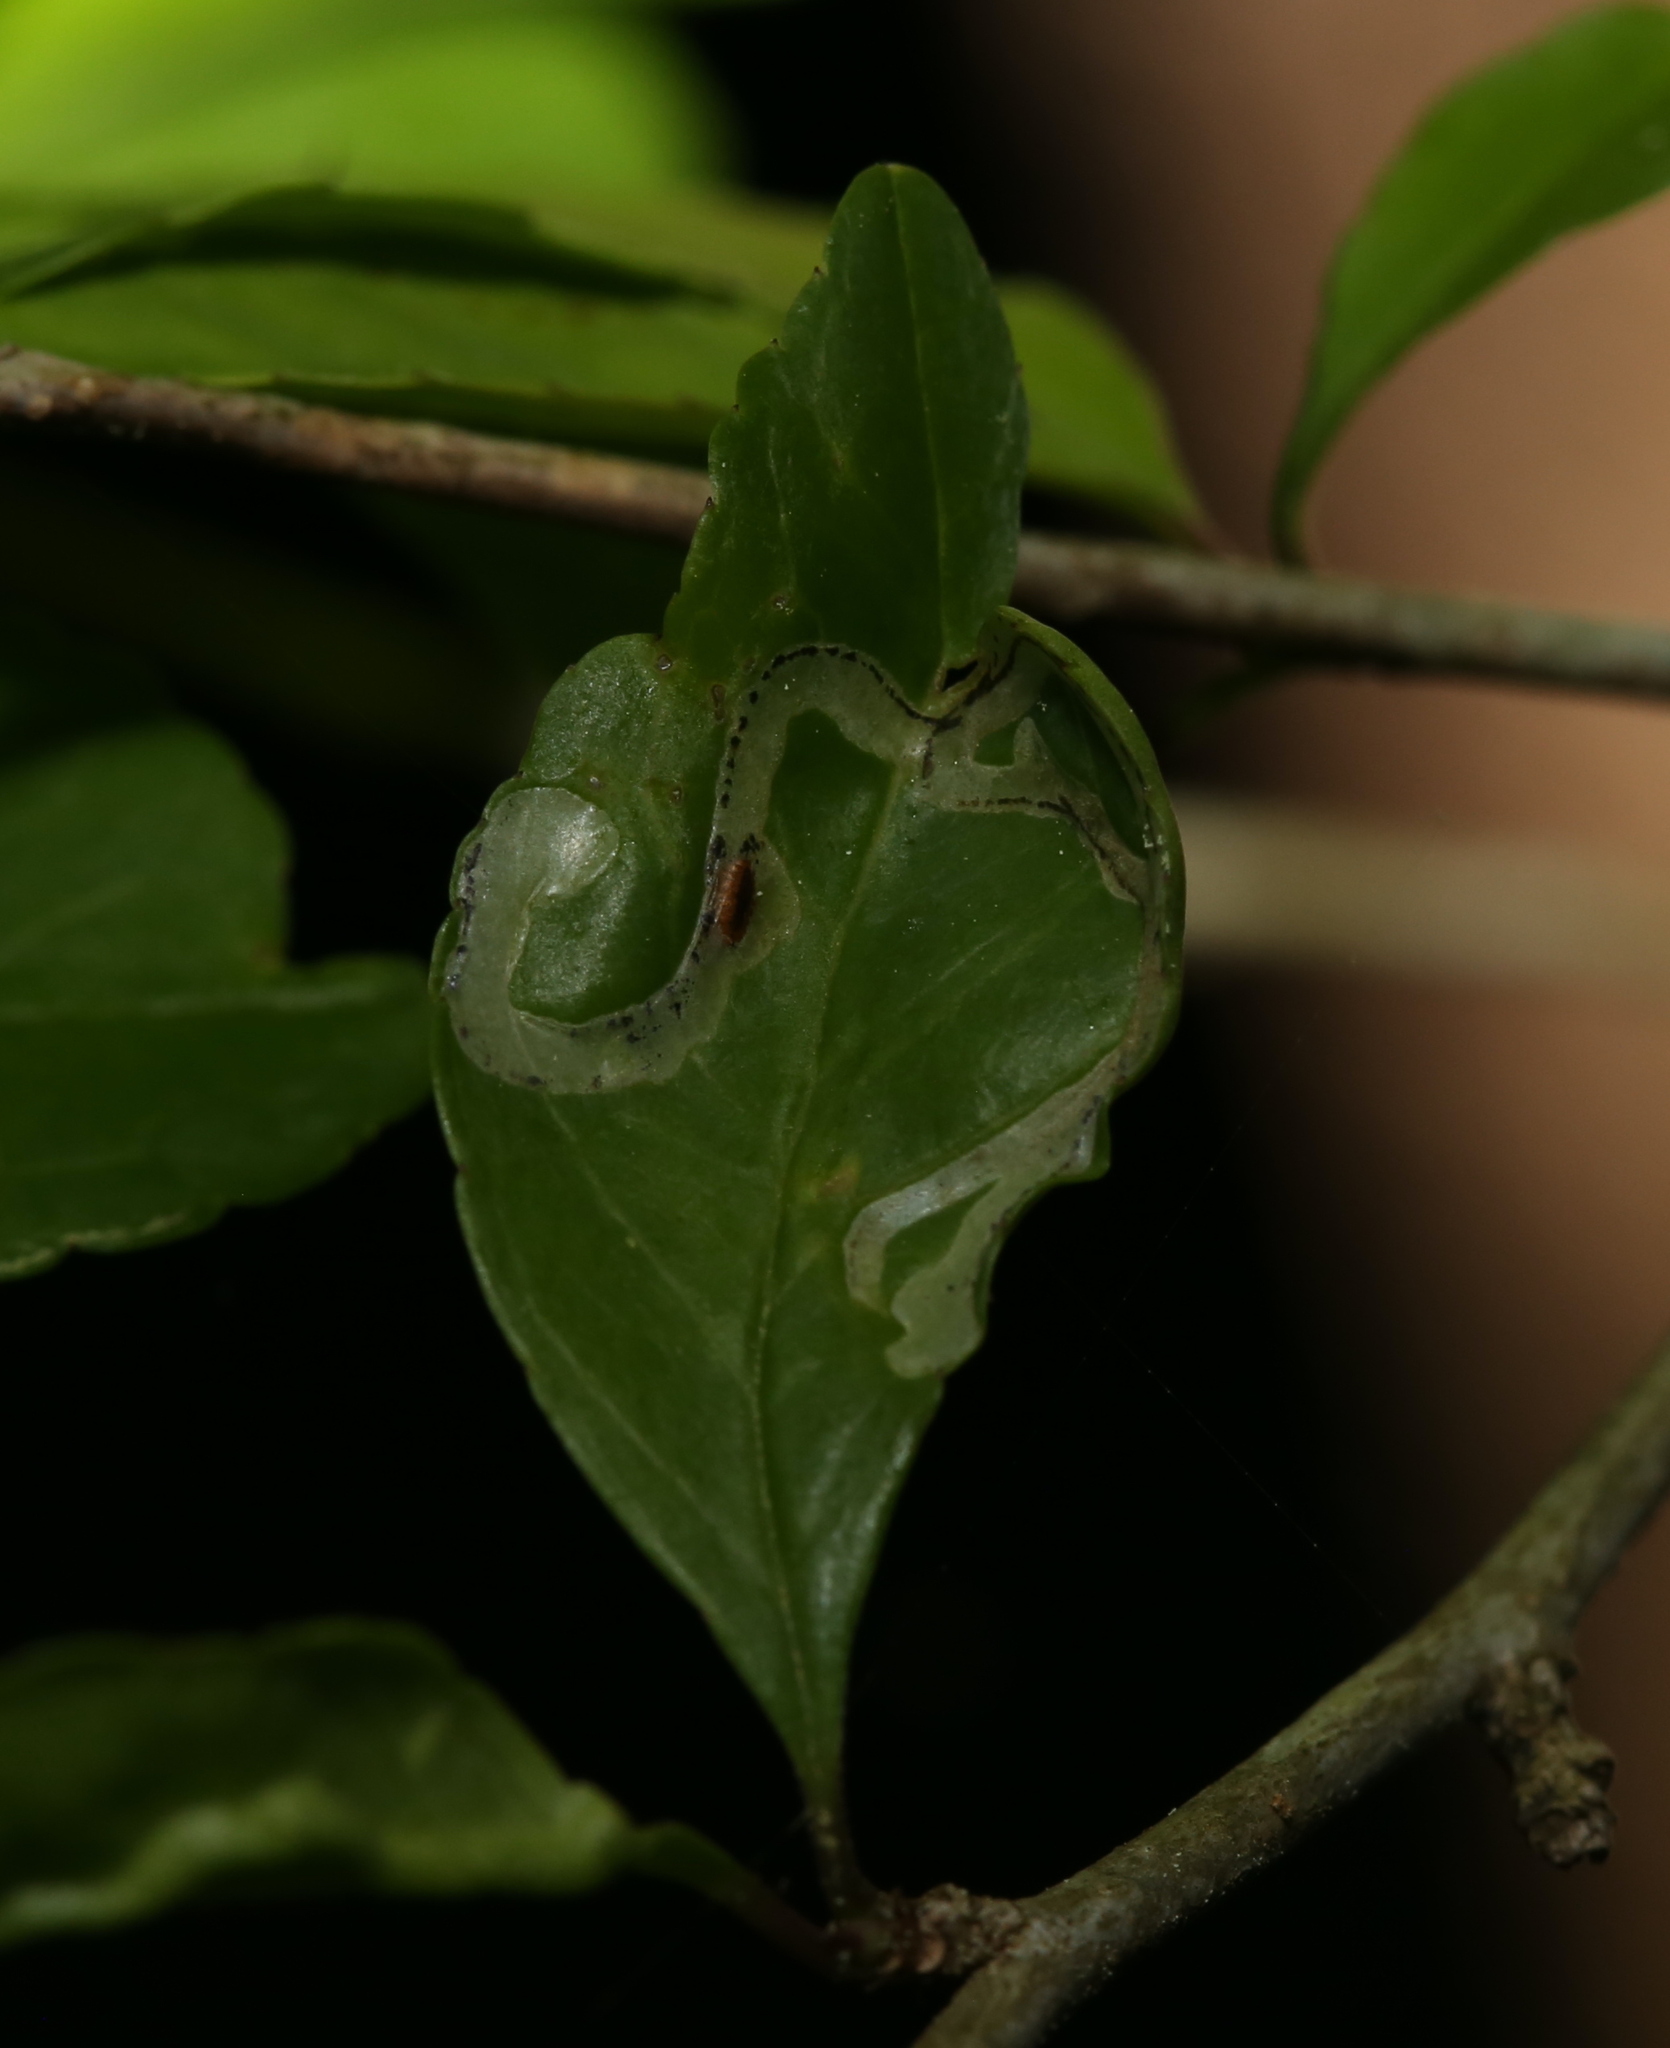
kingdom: Animalia
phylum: Arthropoda
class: Insecta
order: Diptera
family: Agromyzidae
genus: Phytomyza
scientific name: Phytomyza ditmani
